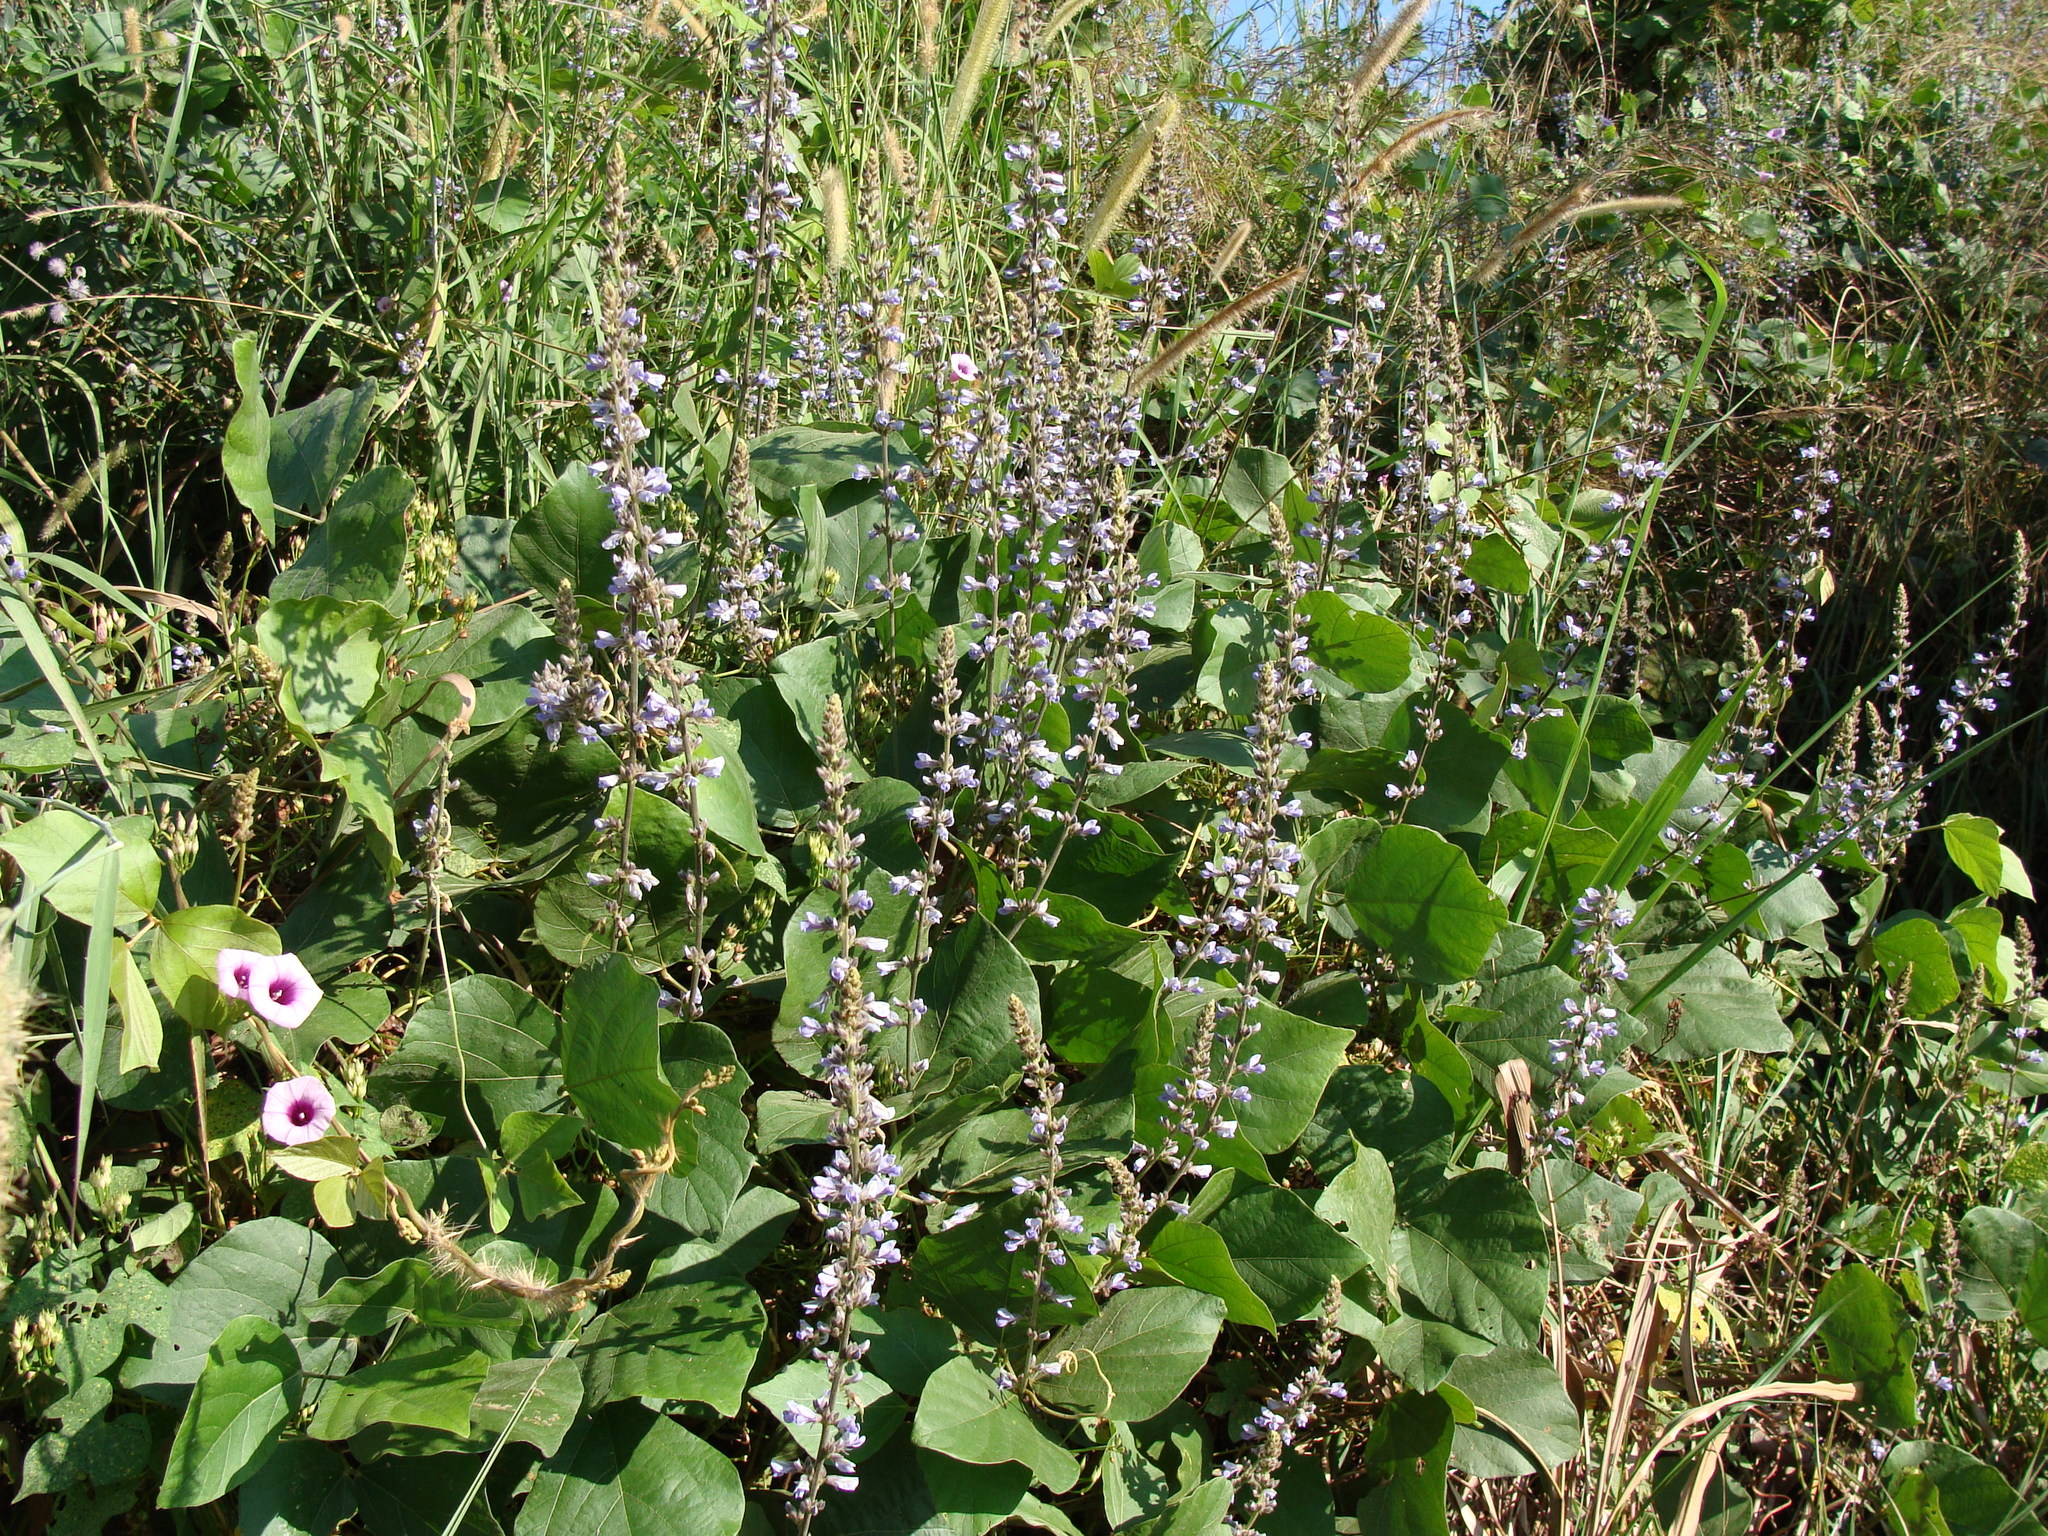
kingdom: Plantae
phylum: Tracheophyta
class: Magnoliopsida
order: Fabales
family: Fabaceae
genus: Calopogonium
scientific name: Calopogonium caeruleum
